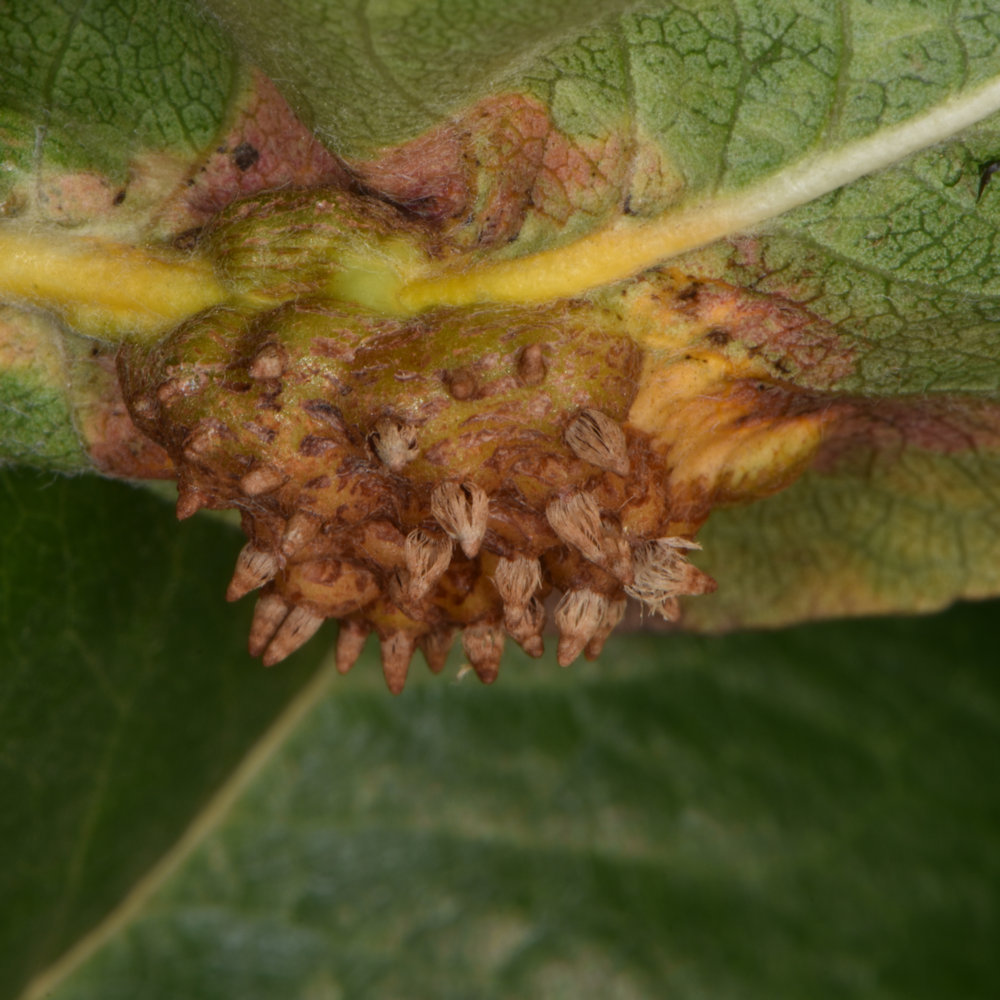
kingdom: Fungi
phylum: Basidiomycota
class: Pucciniomycetes
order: Pucciniales
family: Gymnosporangiaceae
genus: Gymnosporangium
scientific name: Gymnosporangium sabinae
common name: Pear trellis rust fungus
